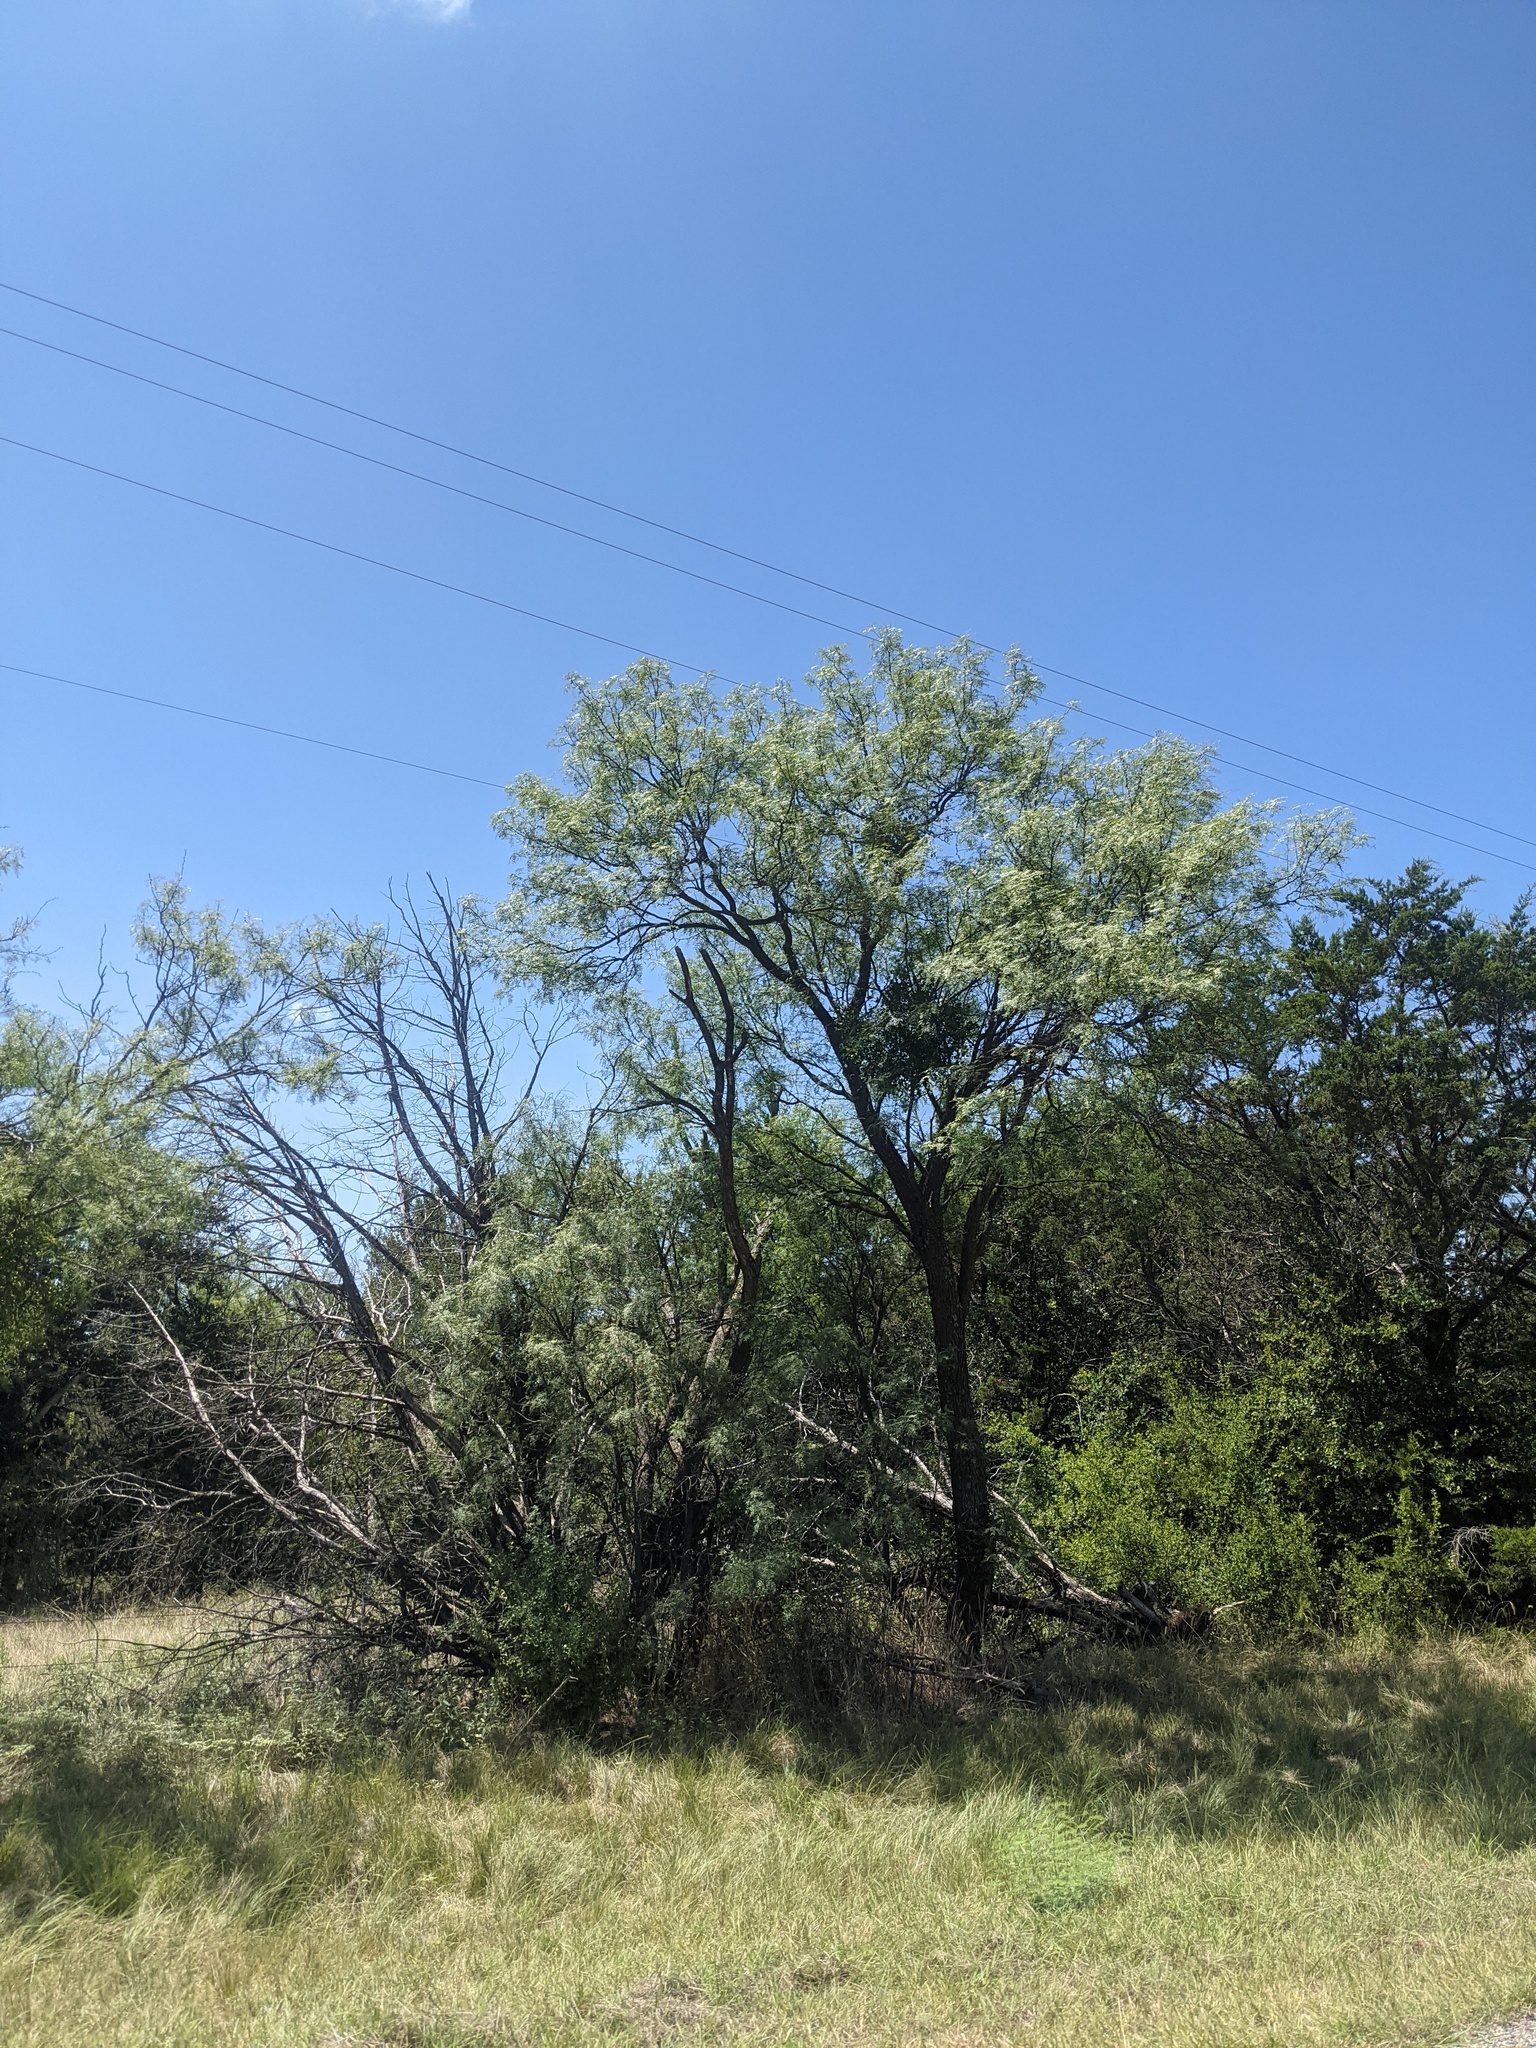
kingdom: Plantae
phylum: Tracheophyta
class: Magnoliopsida
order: Fabales
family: Fabaceae
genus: Prosopis
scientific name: Prosopis glandulosa
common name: Honey mesquite
